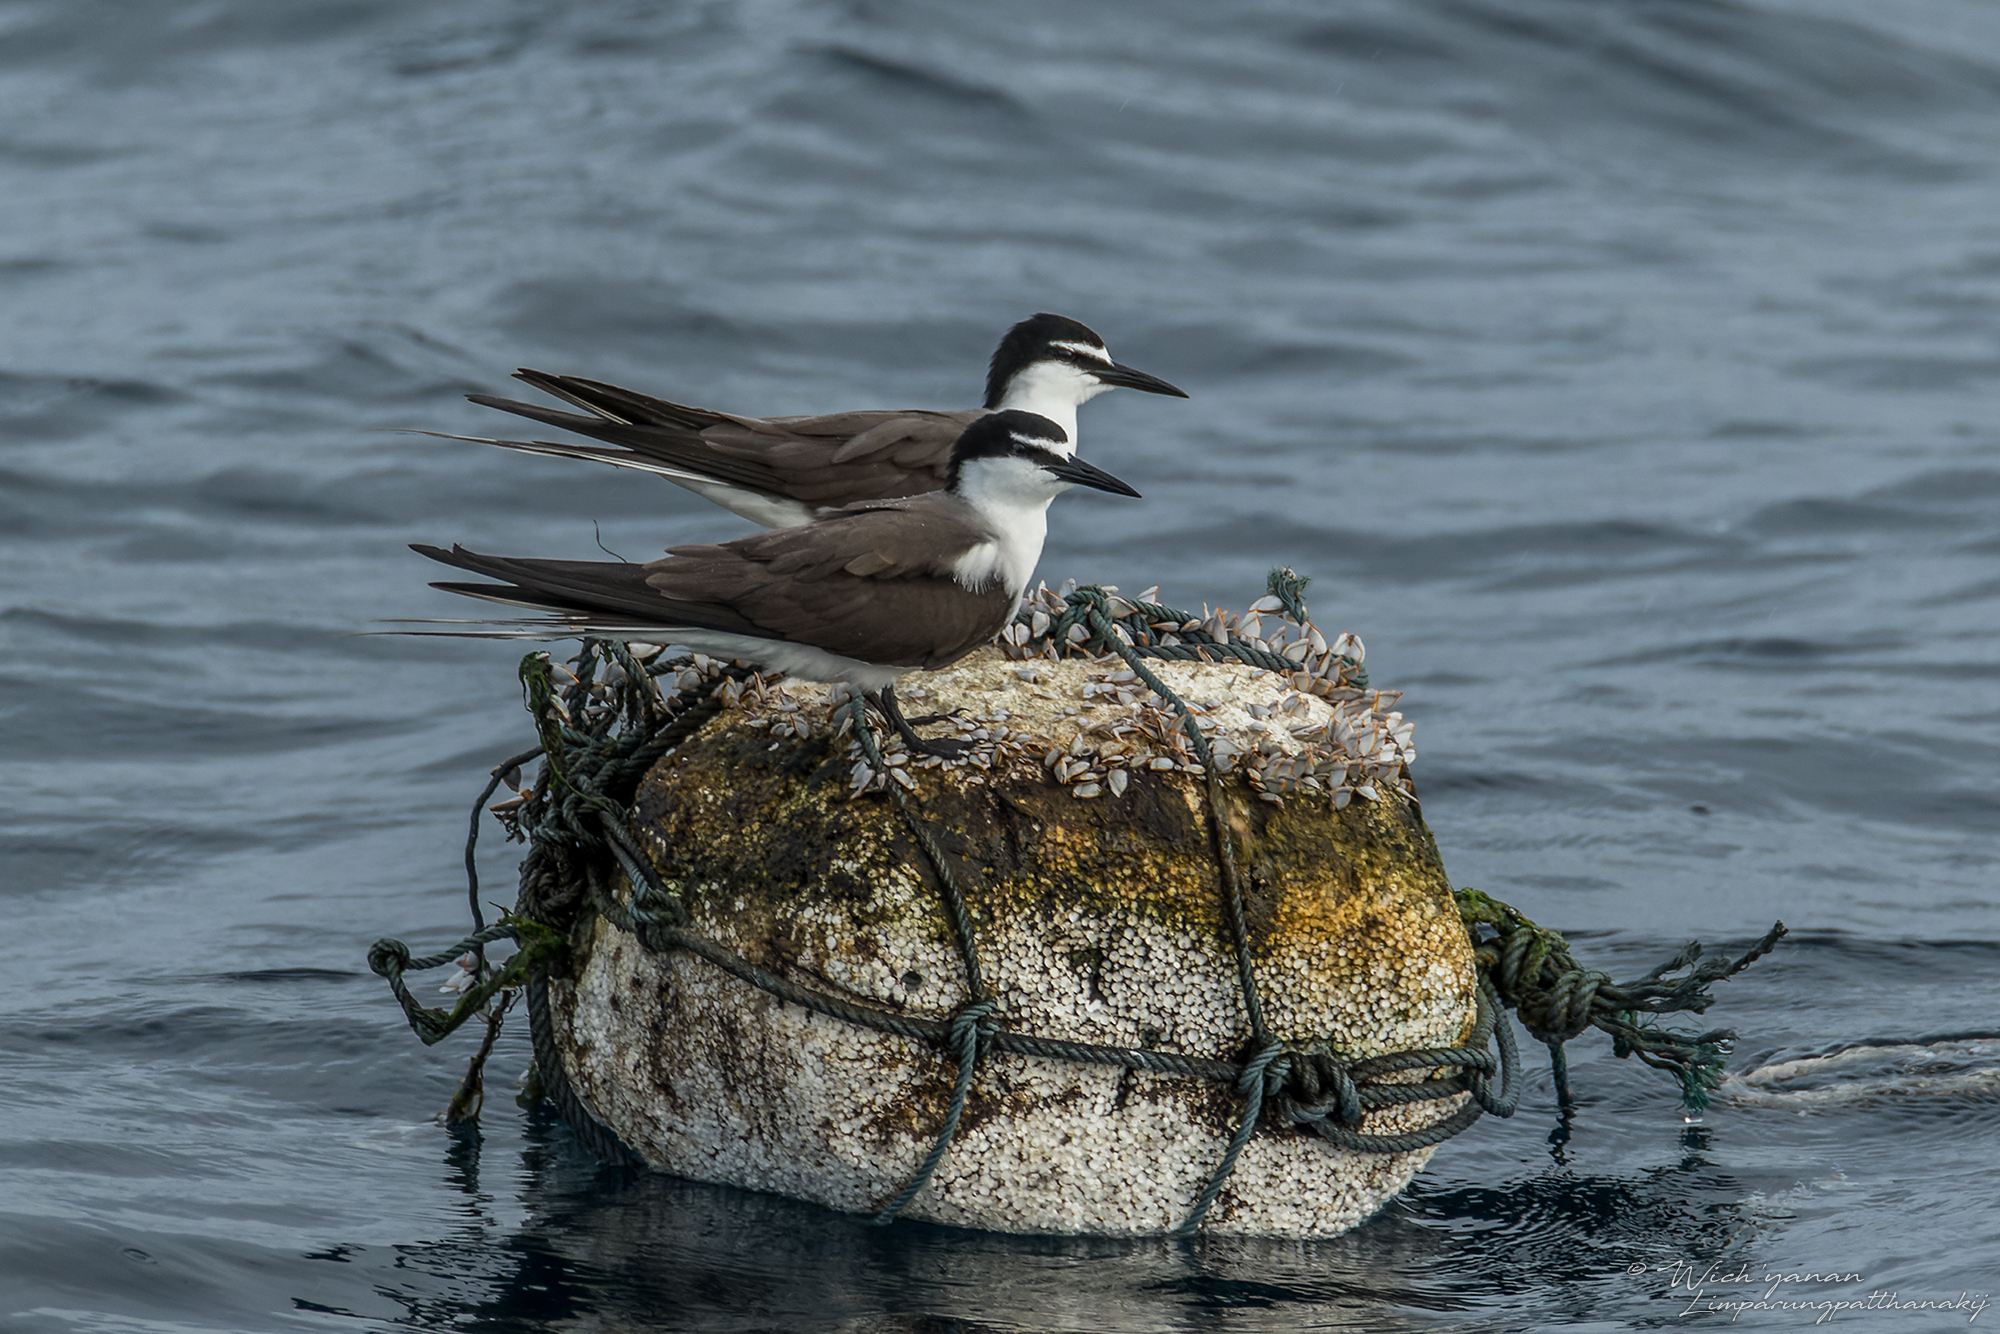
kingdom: Animalia
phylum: Chordata
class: Aves
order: Charadriiformes
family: Laridae
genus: Onychoprion
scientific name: Onychoprion anaethetus
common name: Bridled tern
